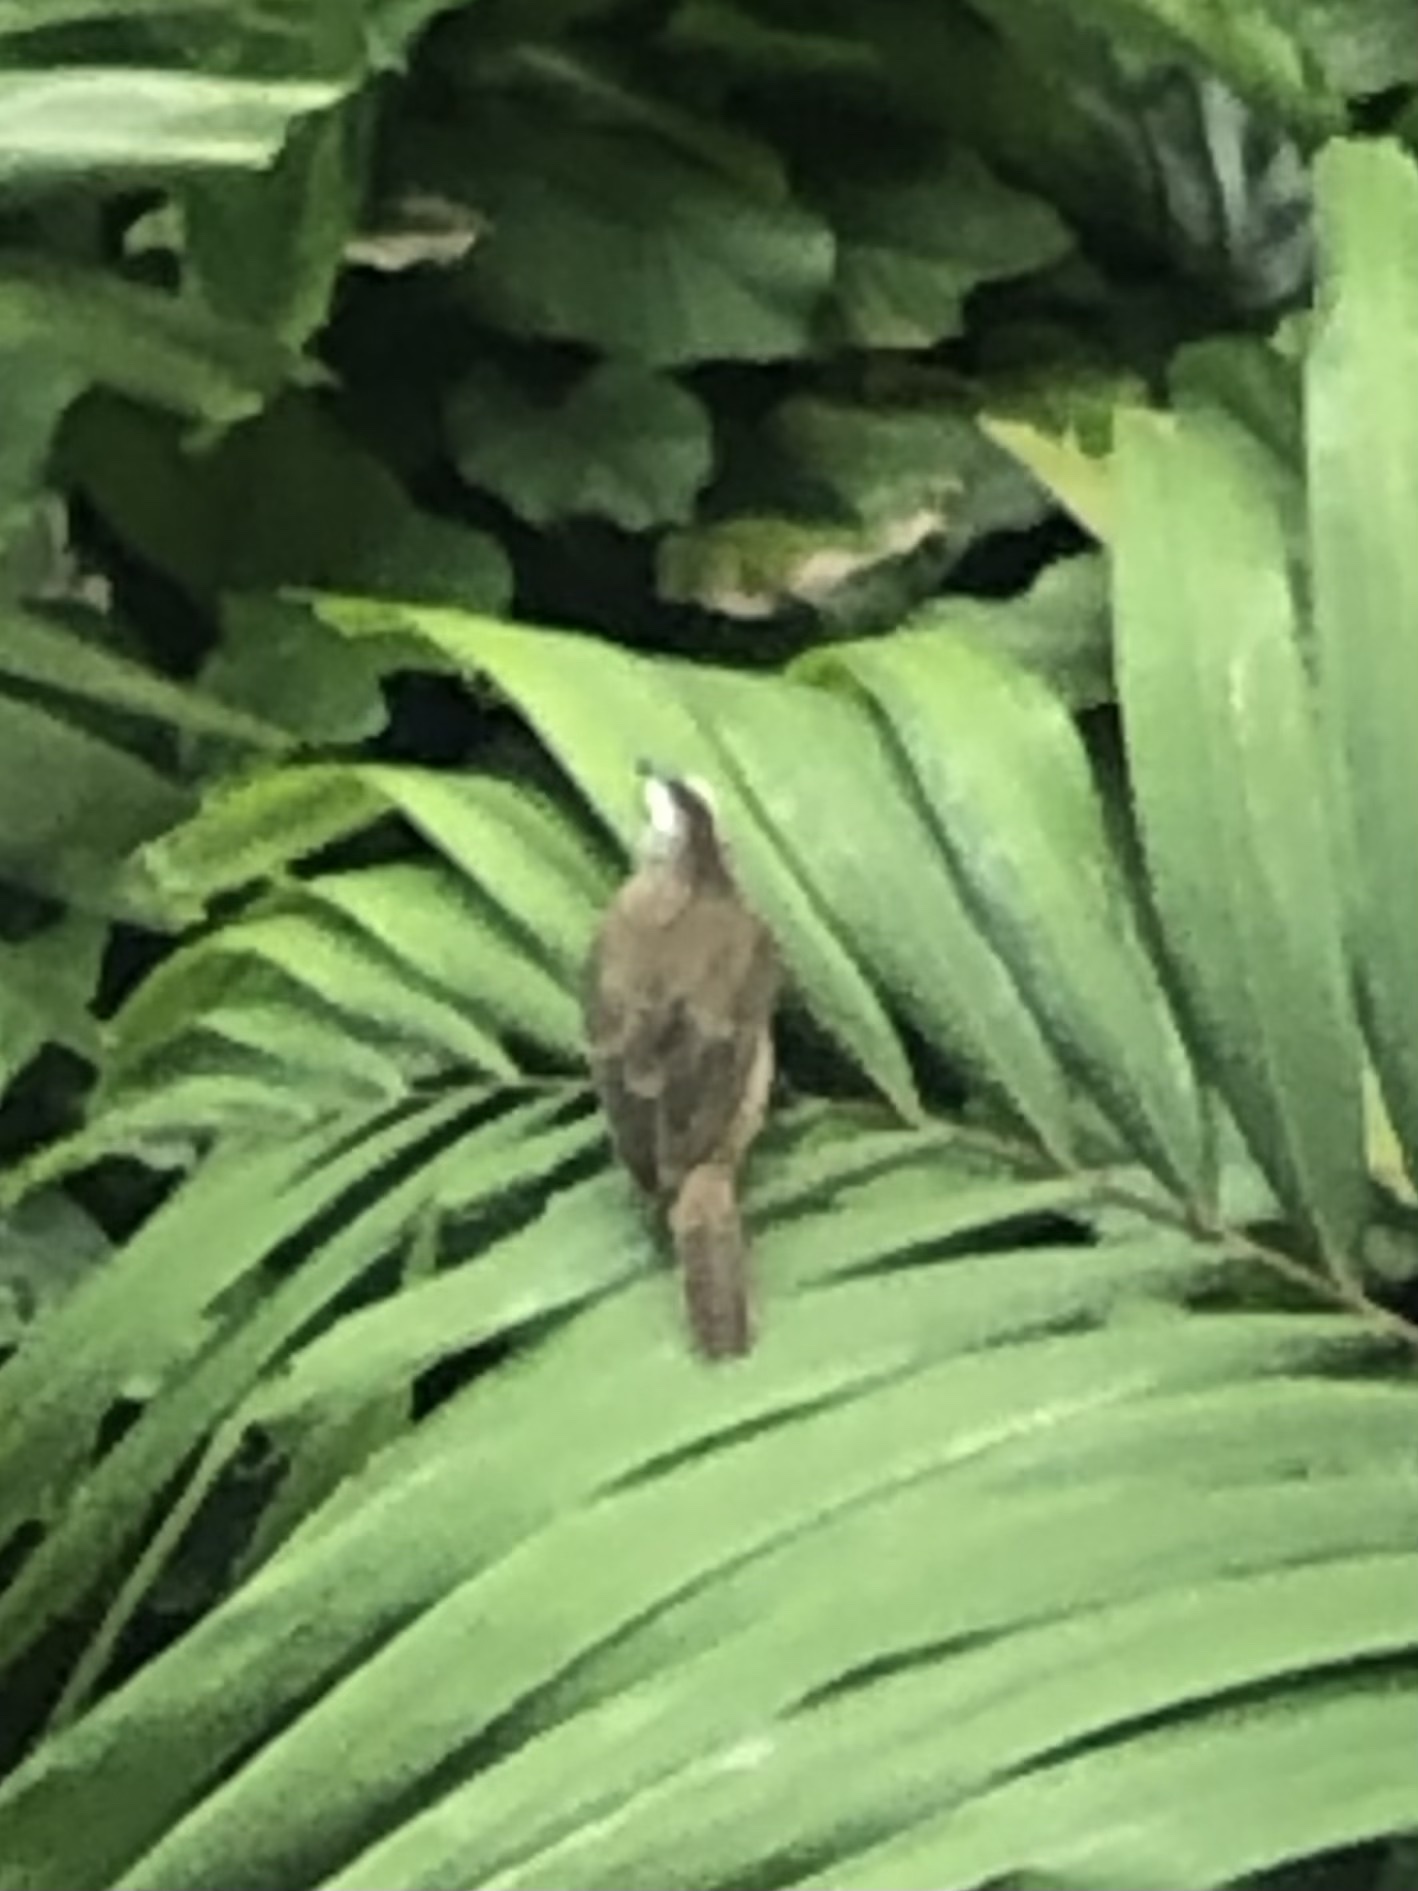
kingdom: Animalia
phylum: Chordata
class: Aves
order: Passeriformes
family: Pycnonotidae
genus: Pycnonotus
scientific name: Pycnonotus goiavier
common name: Yellow-vented bulbul
